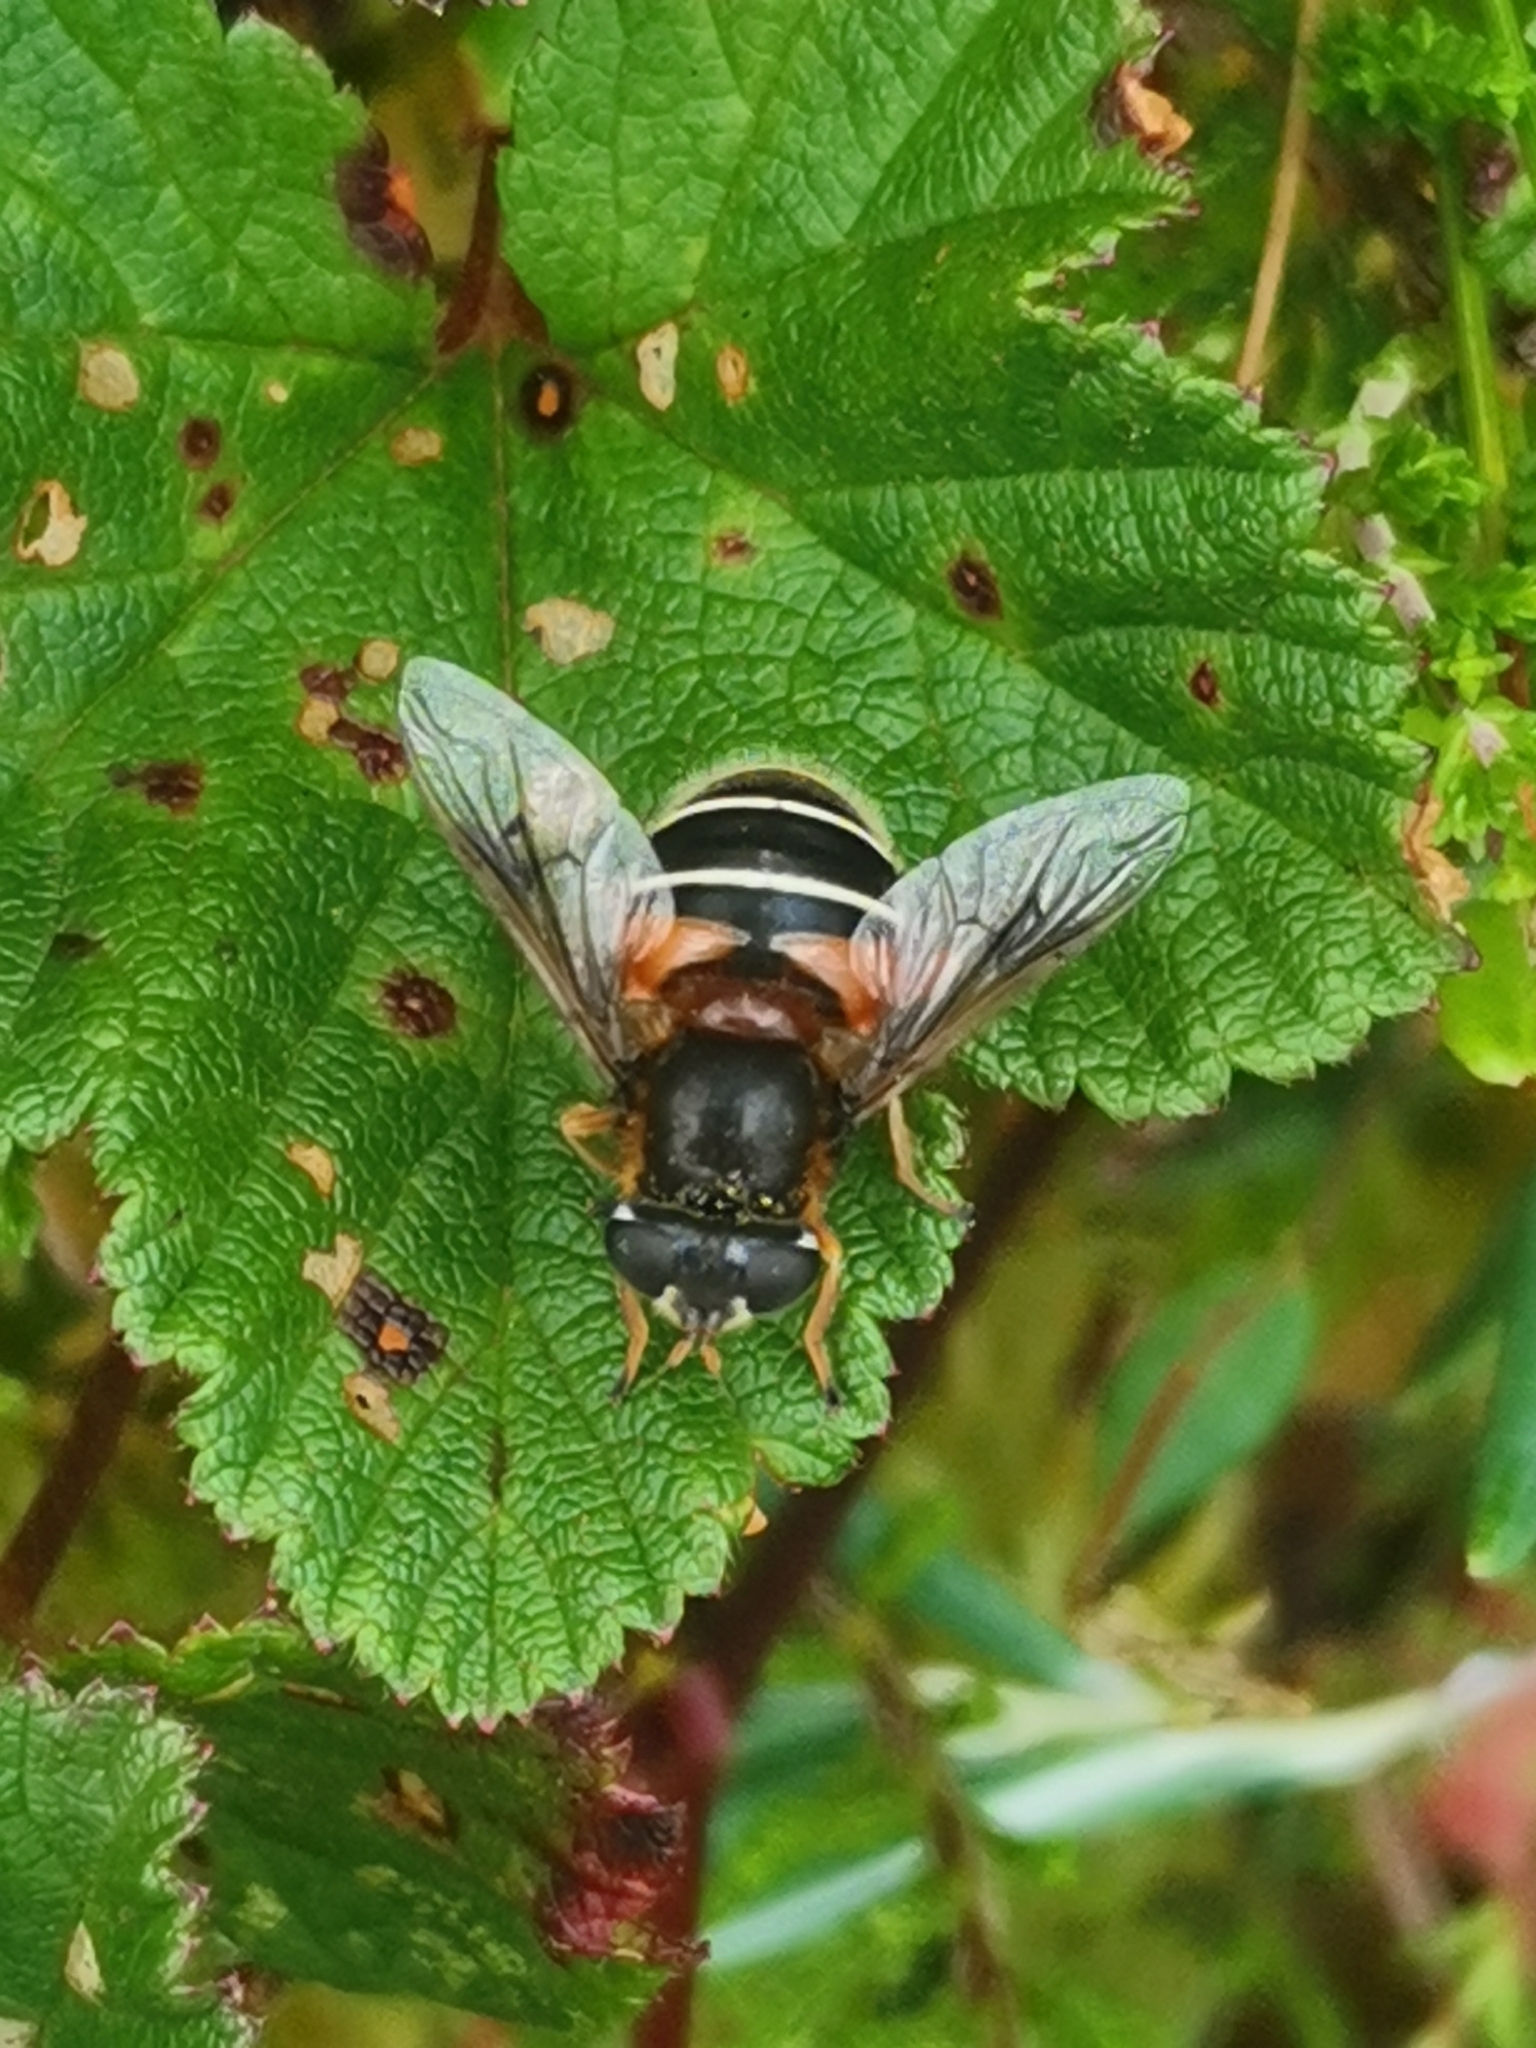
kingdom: Animalia
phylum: Arthropoda
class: Insecta
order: Diptera
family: Syrphidae
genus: Eristalis
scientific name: Eristalis cryptarum
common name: Bog hoverfly
